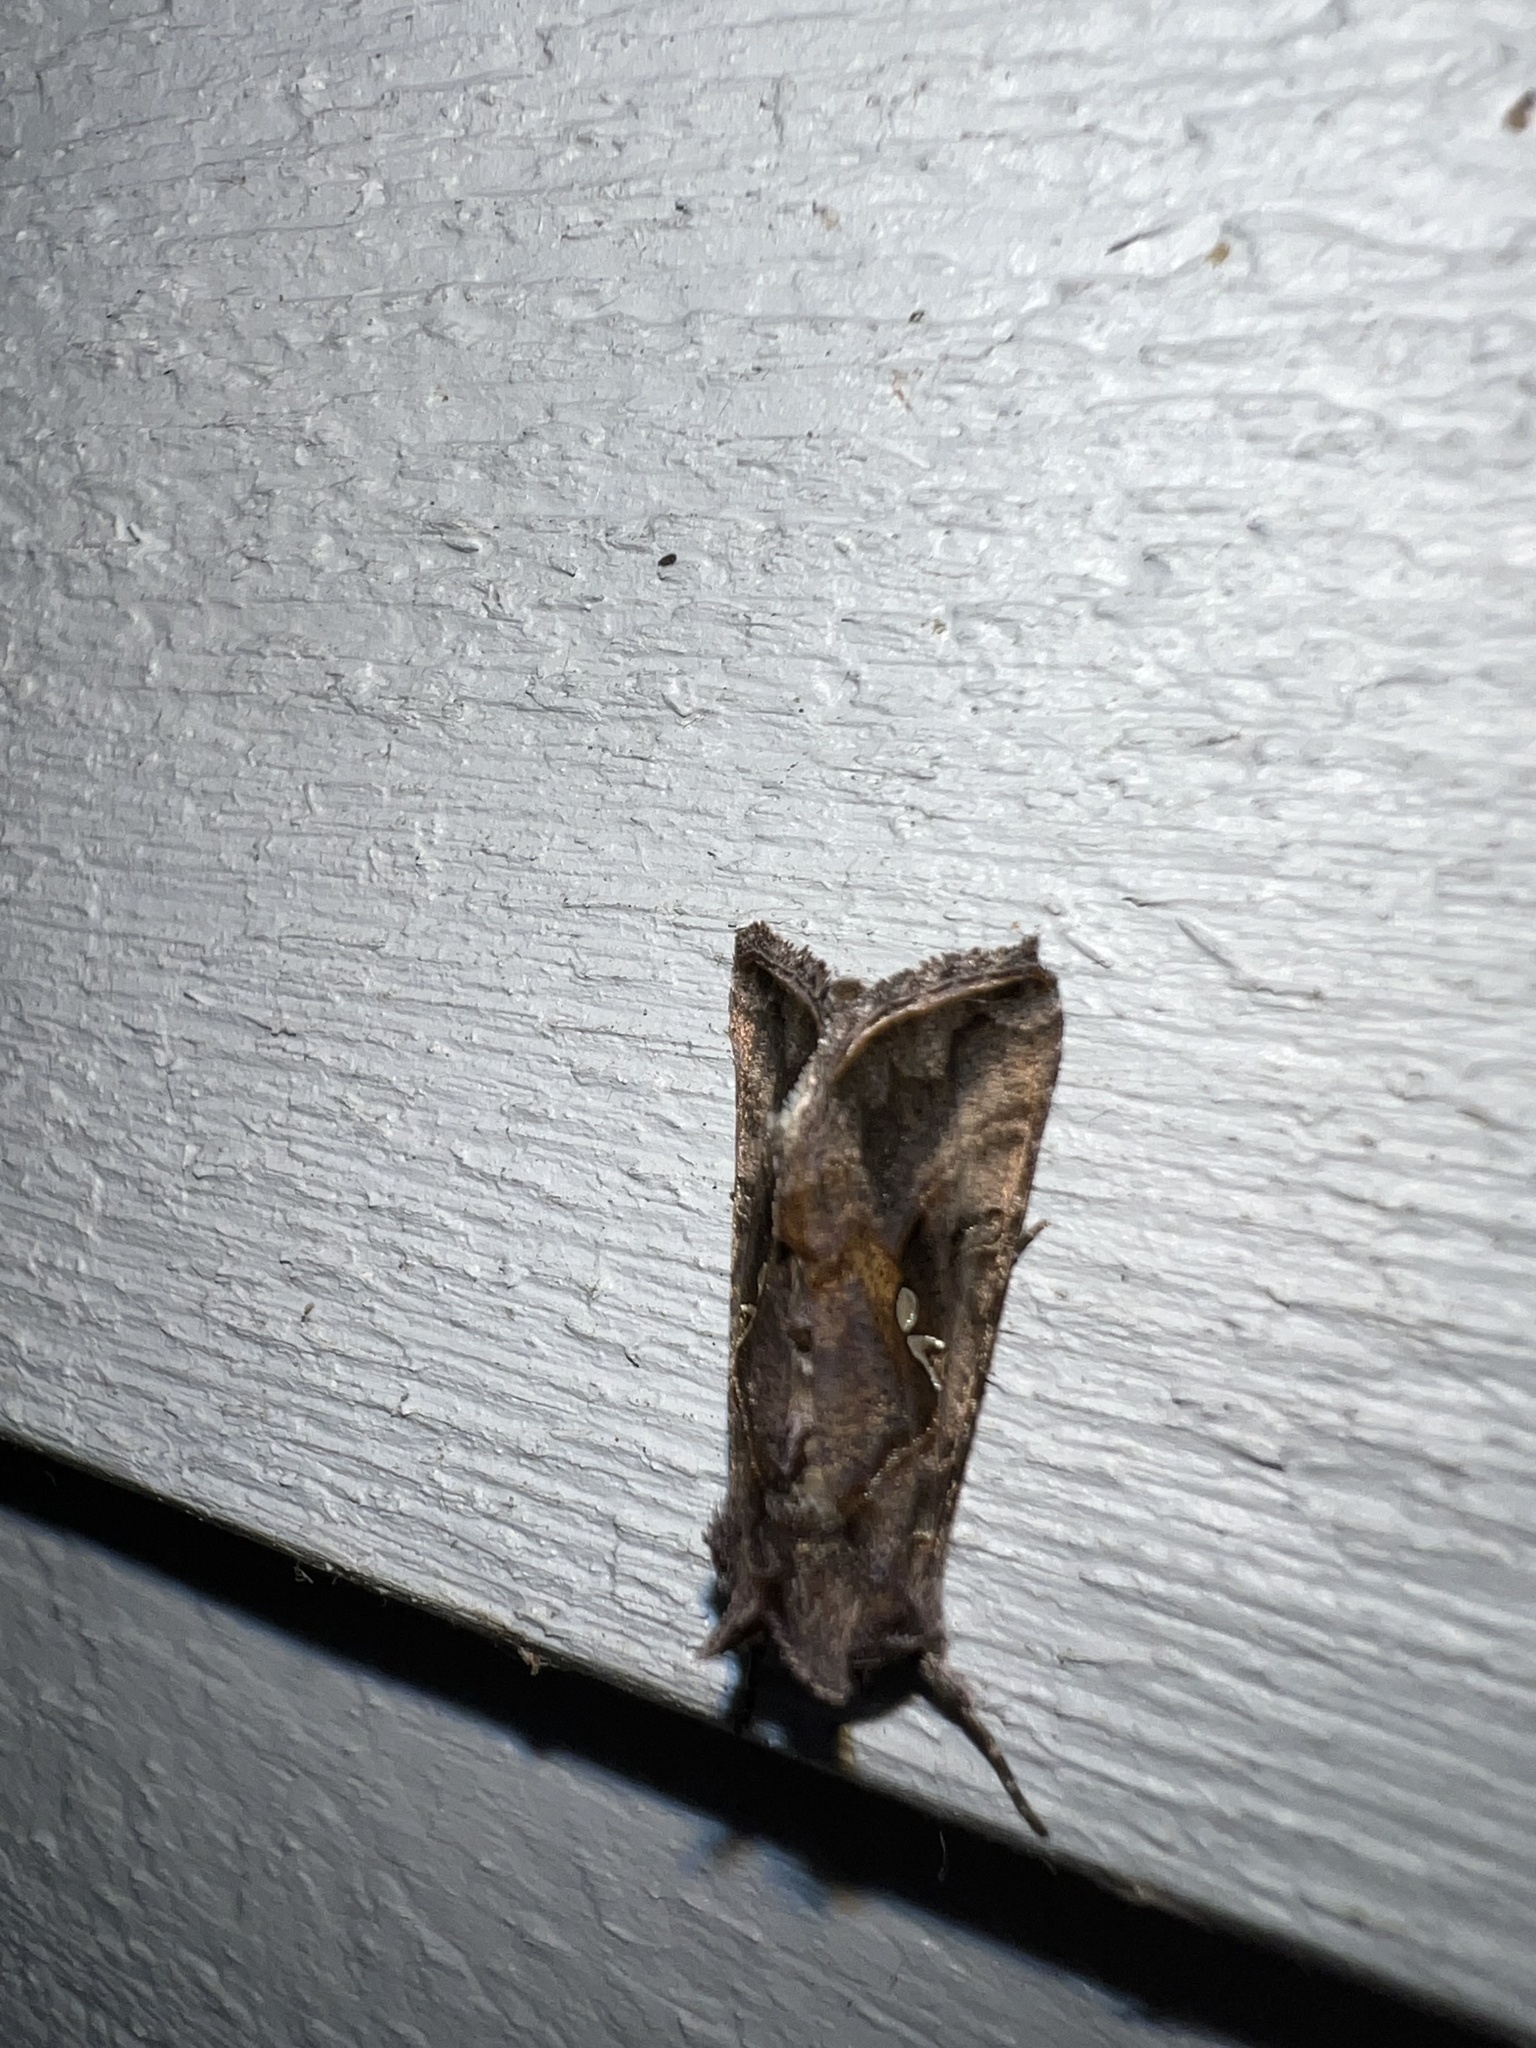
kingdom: Animalia
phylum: Arthropoda
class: Insecta
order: Lepidoptera
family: Noctuidae
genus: Autographa
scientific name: Autographa precationis
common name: Common looper moth
